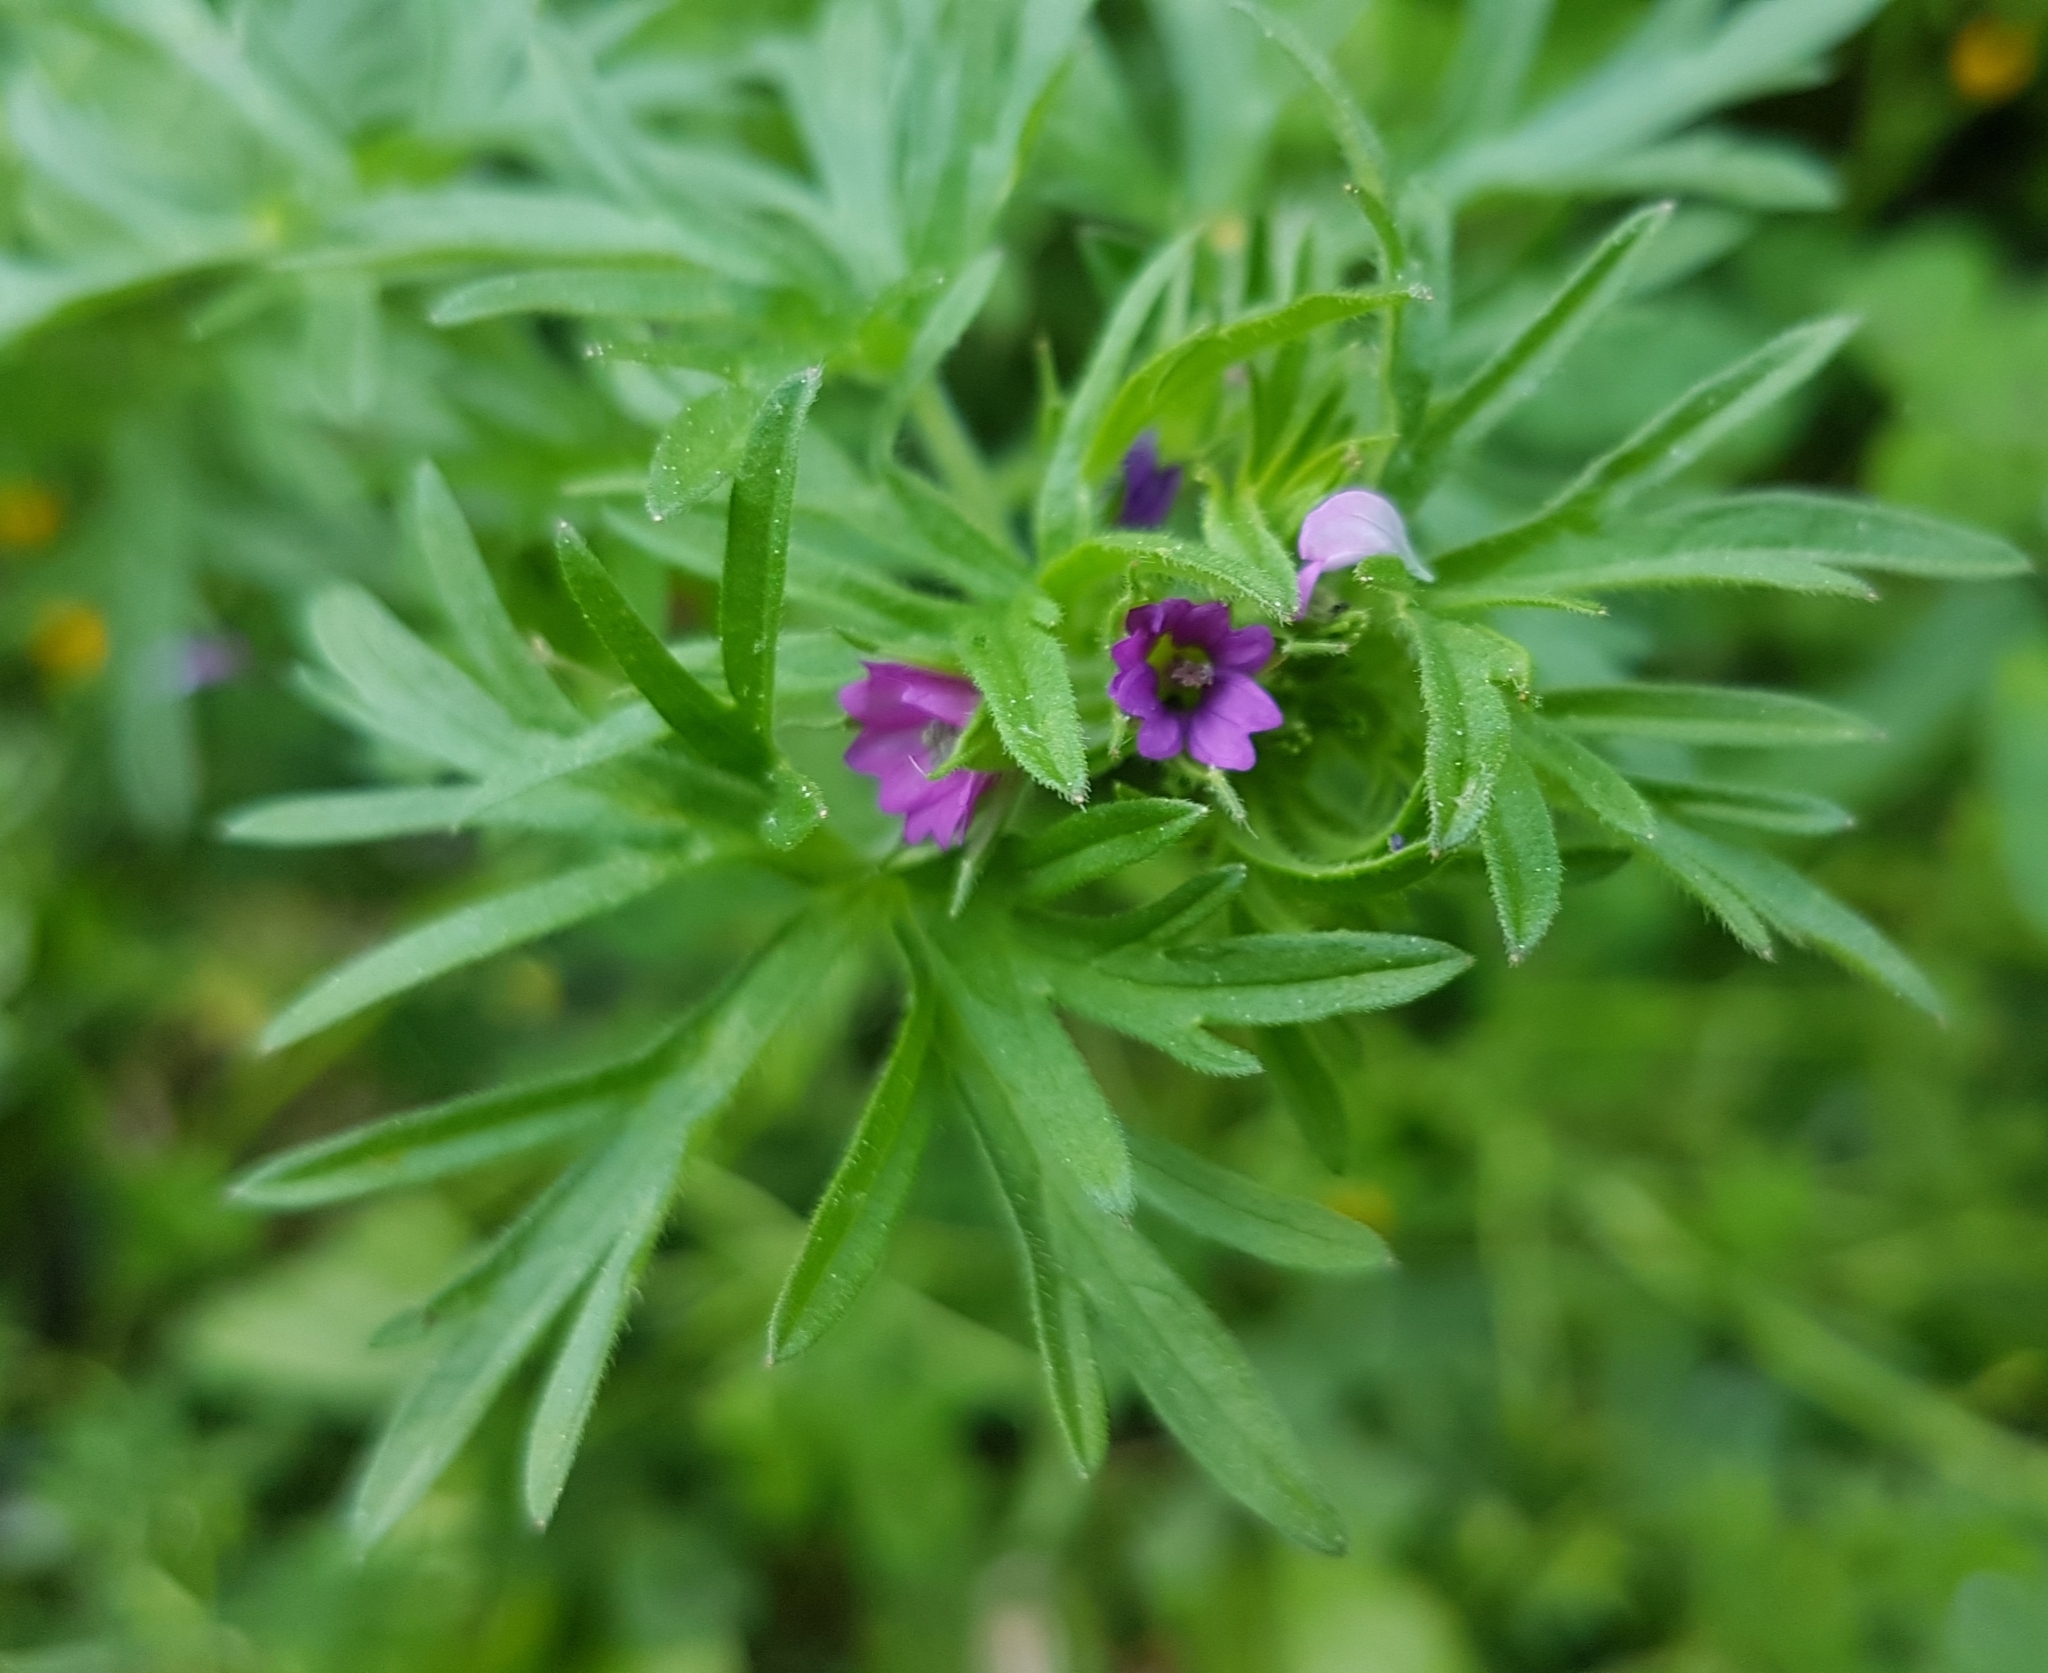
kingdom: Plantae
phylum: Tracheophyta
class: Magnoliopsida
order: Geraniales
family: Geraniaceae
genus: Geranium
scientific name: Geranium dissectum
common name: Cut-leaved crane's-bill
